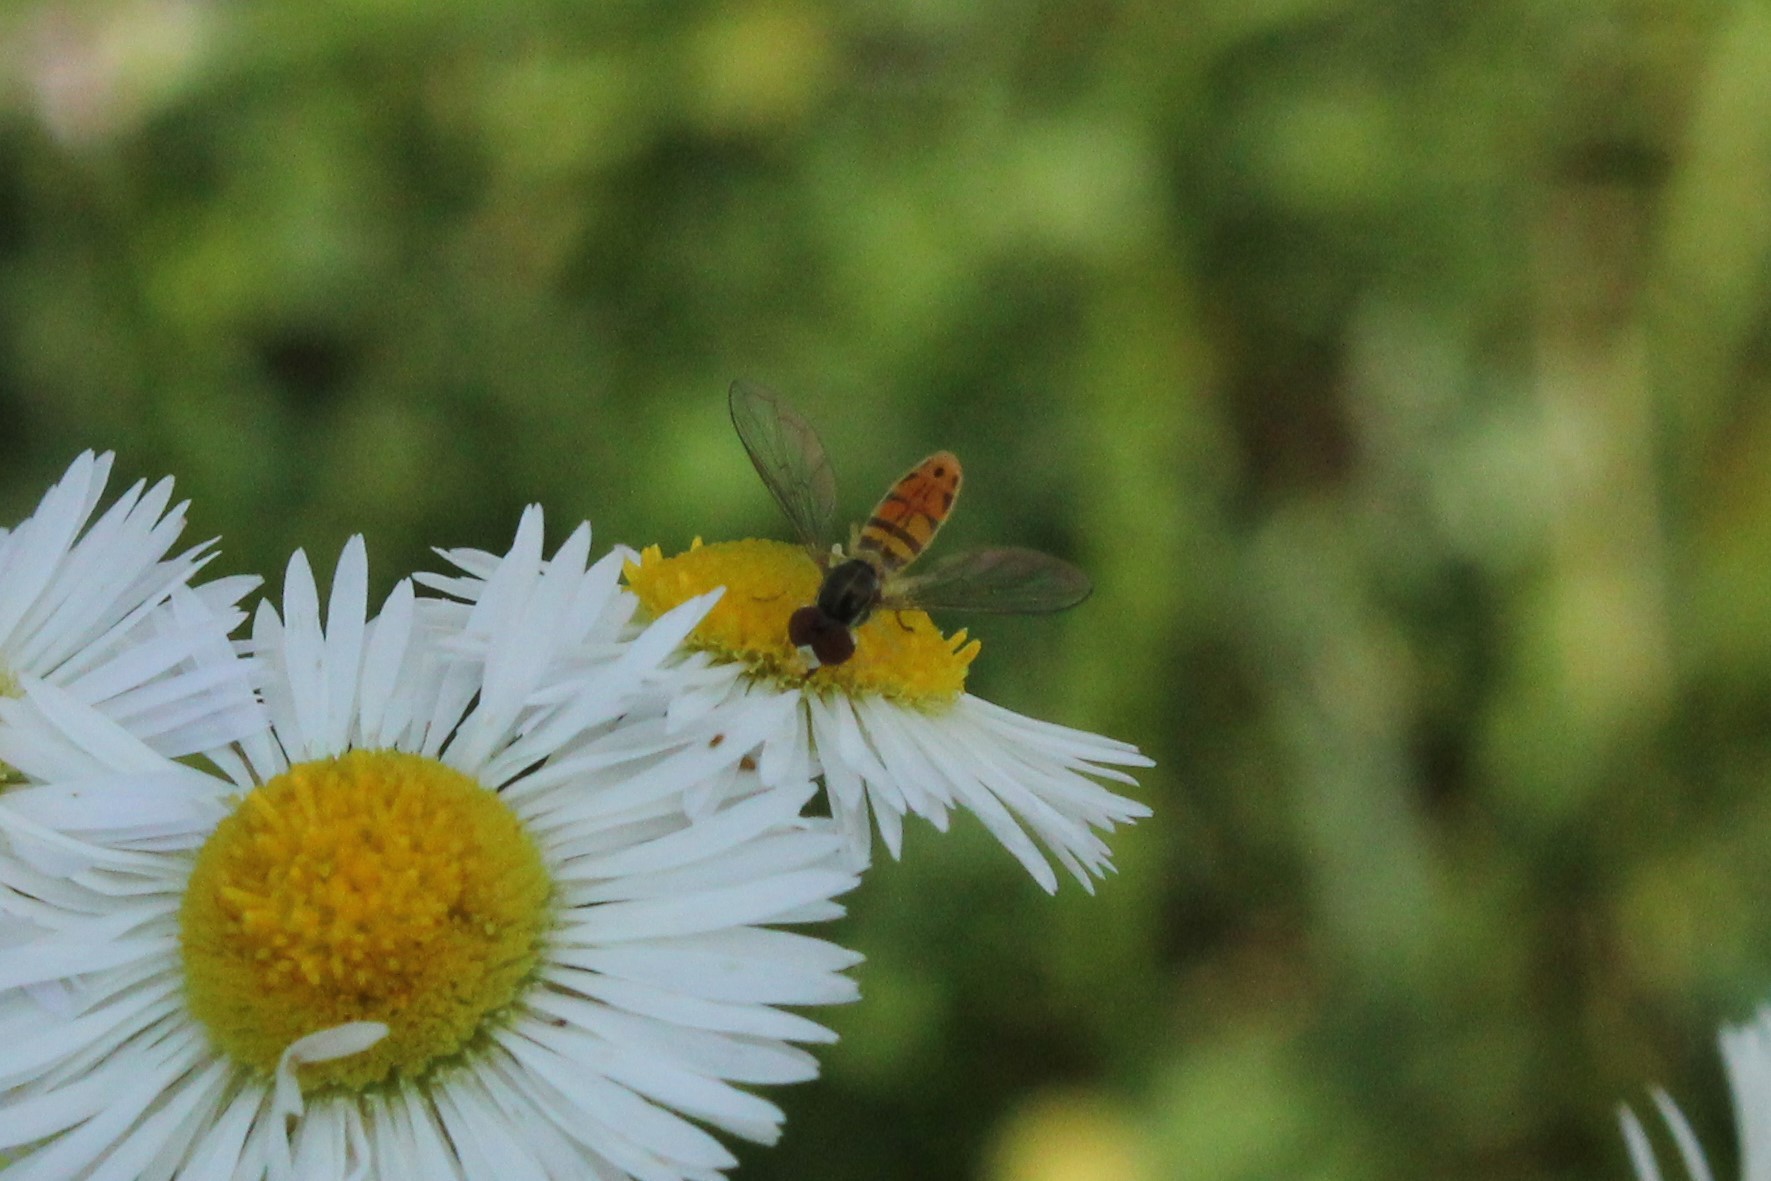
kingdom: Animalia
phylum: Arthropoda
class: Insecta
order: Diptera
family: Syrphidae
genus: Toxomerus
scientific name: Toxomerus marginatus
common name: Syrphid fly
